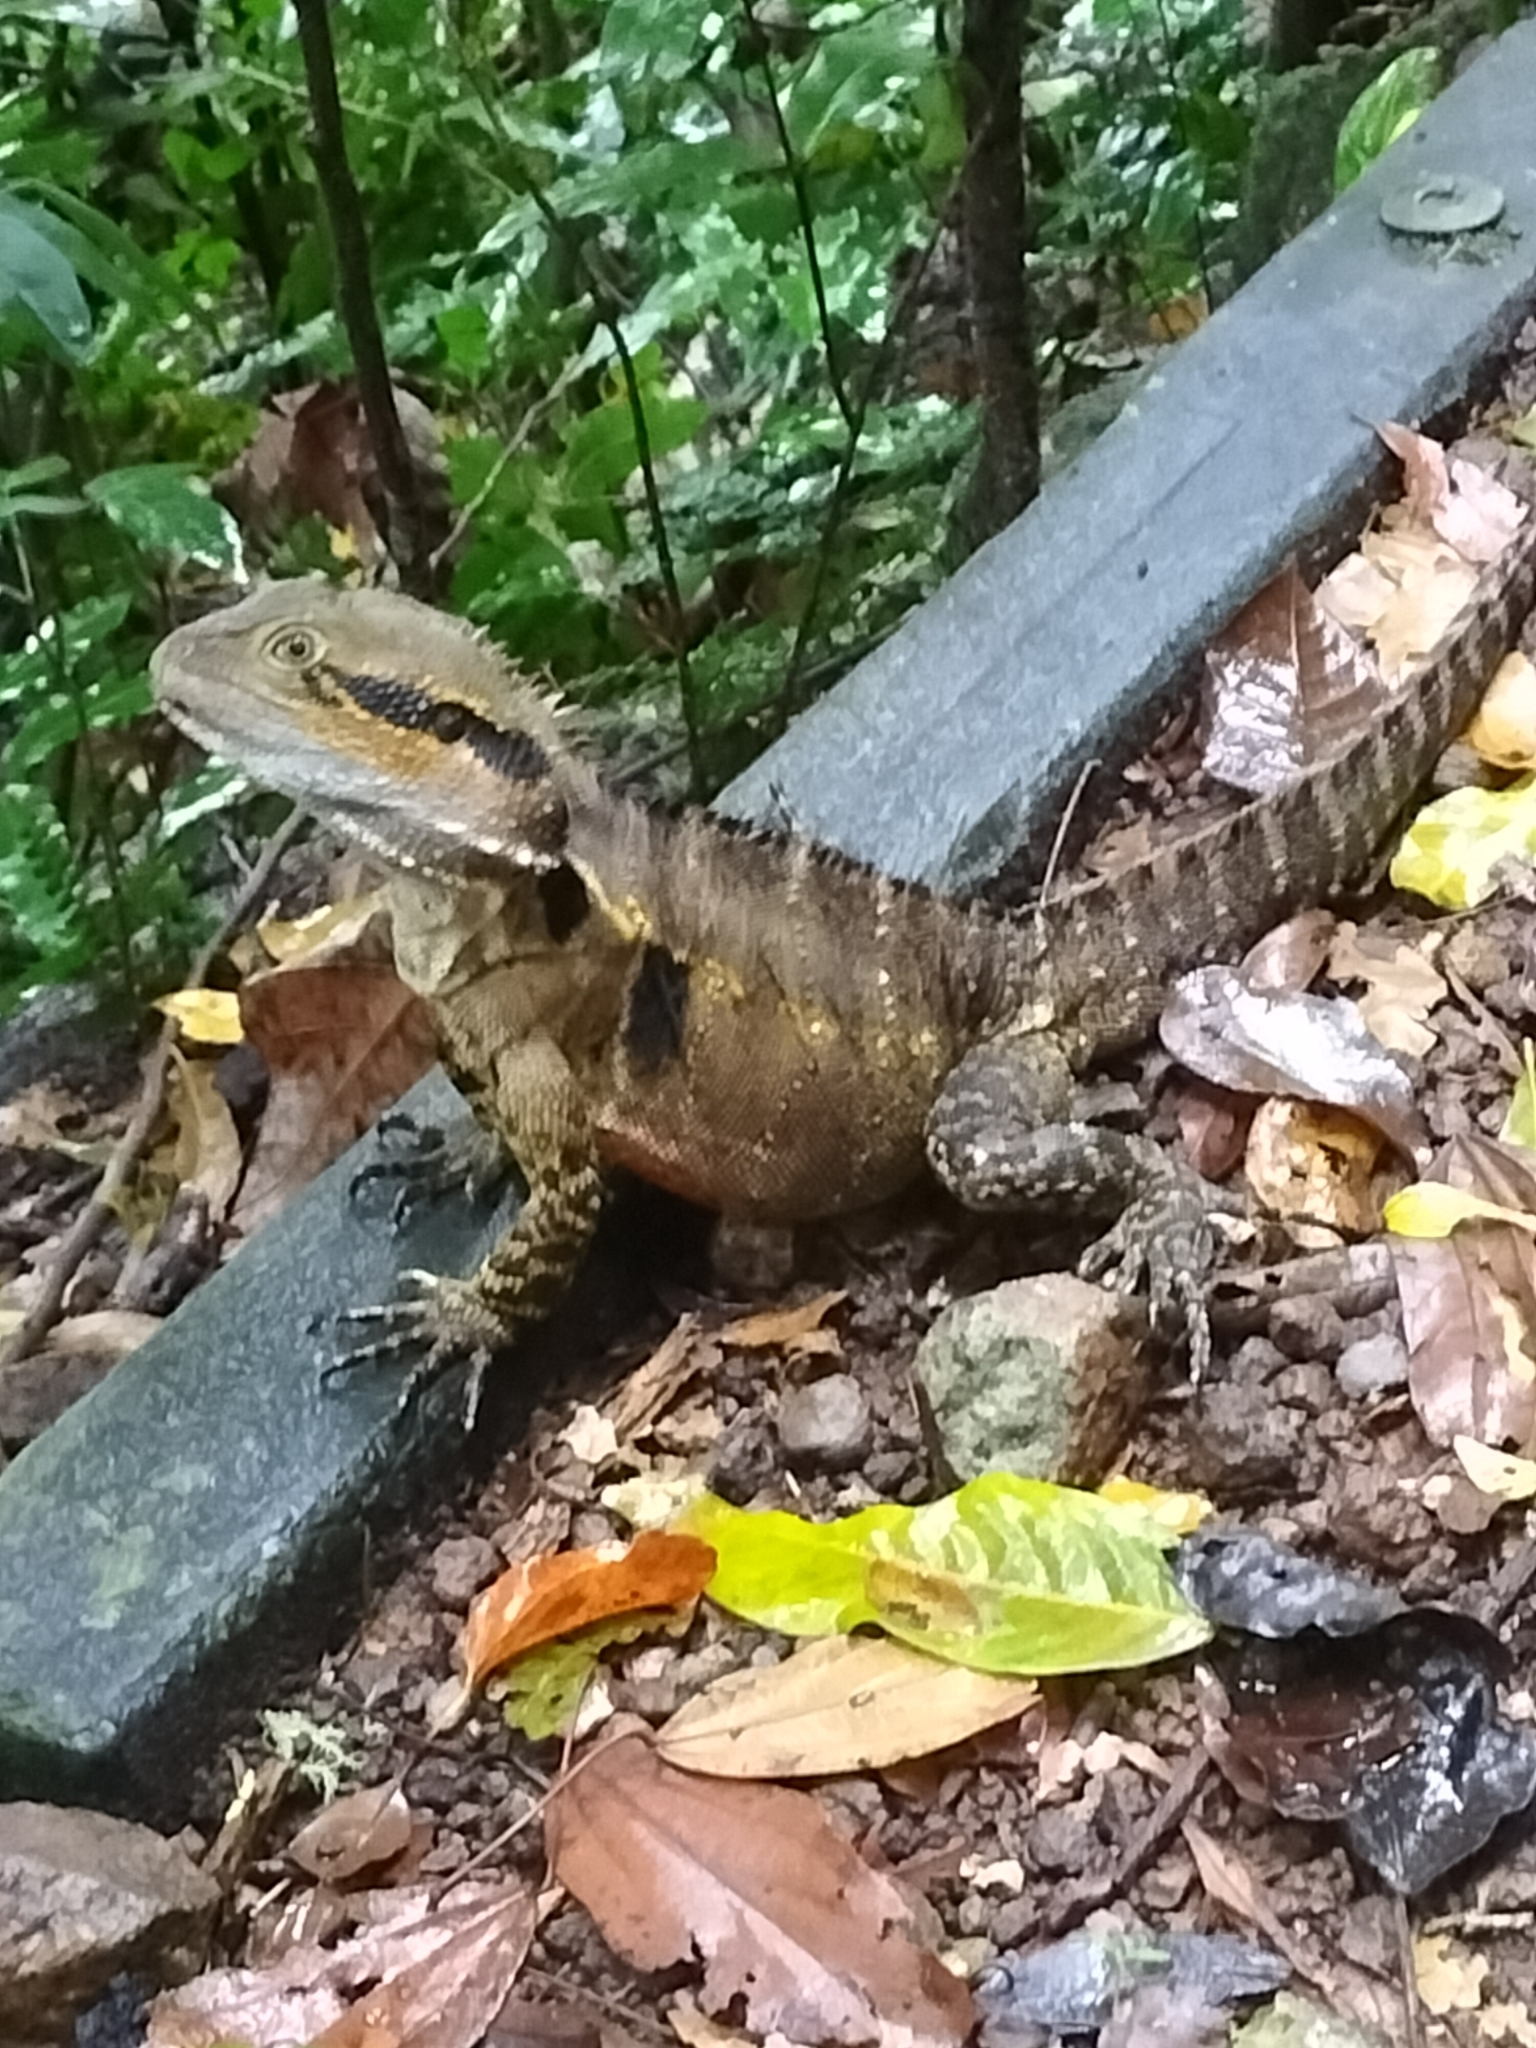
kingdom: Animalia
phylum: Chordata
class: Squamata
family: Agamidae
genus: Intellagama
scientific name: Intellagama lesueurii
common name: Eastern water dragon
